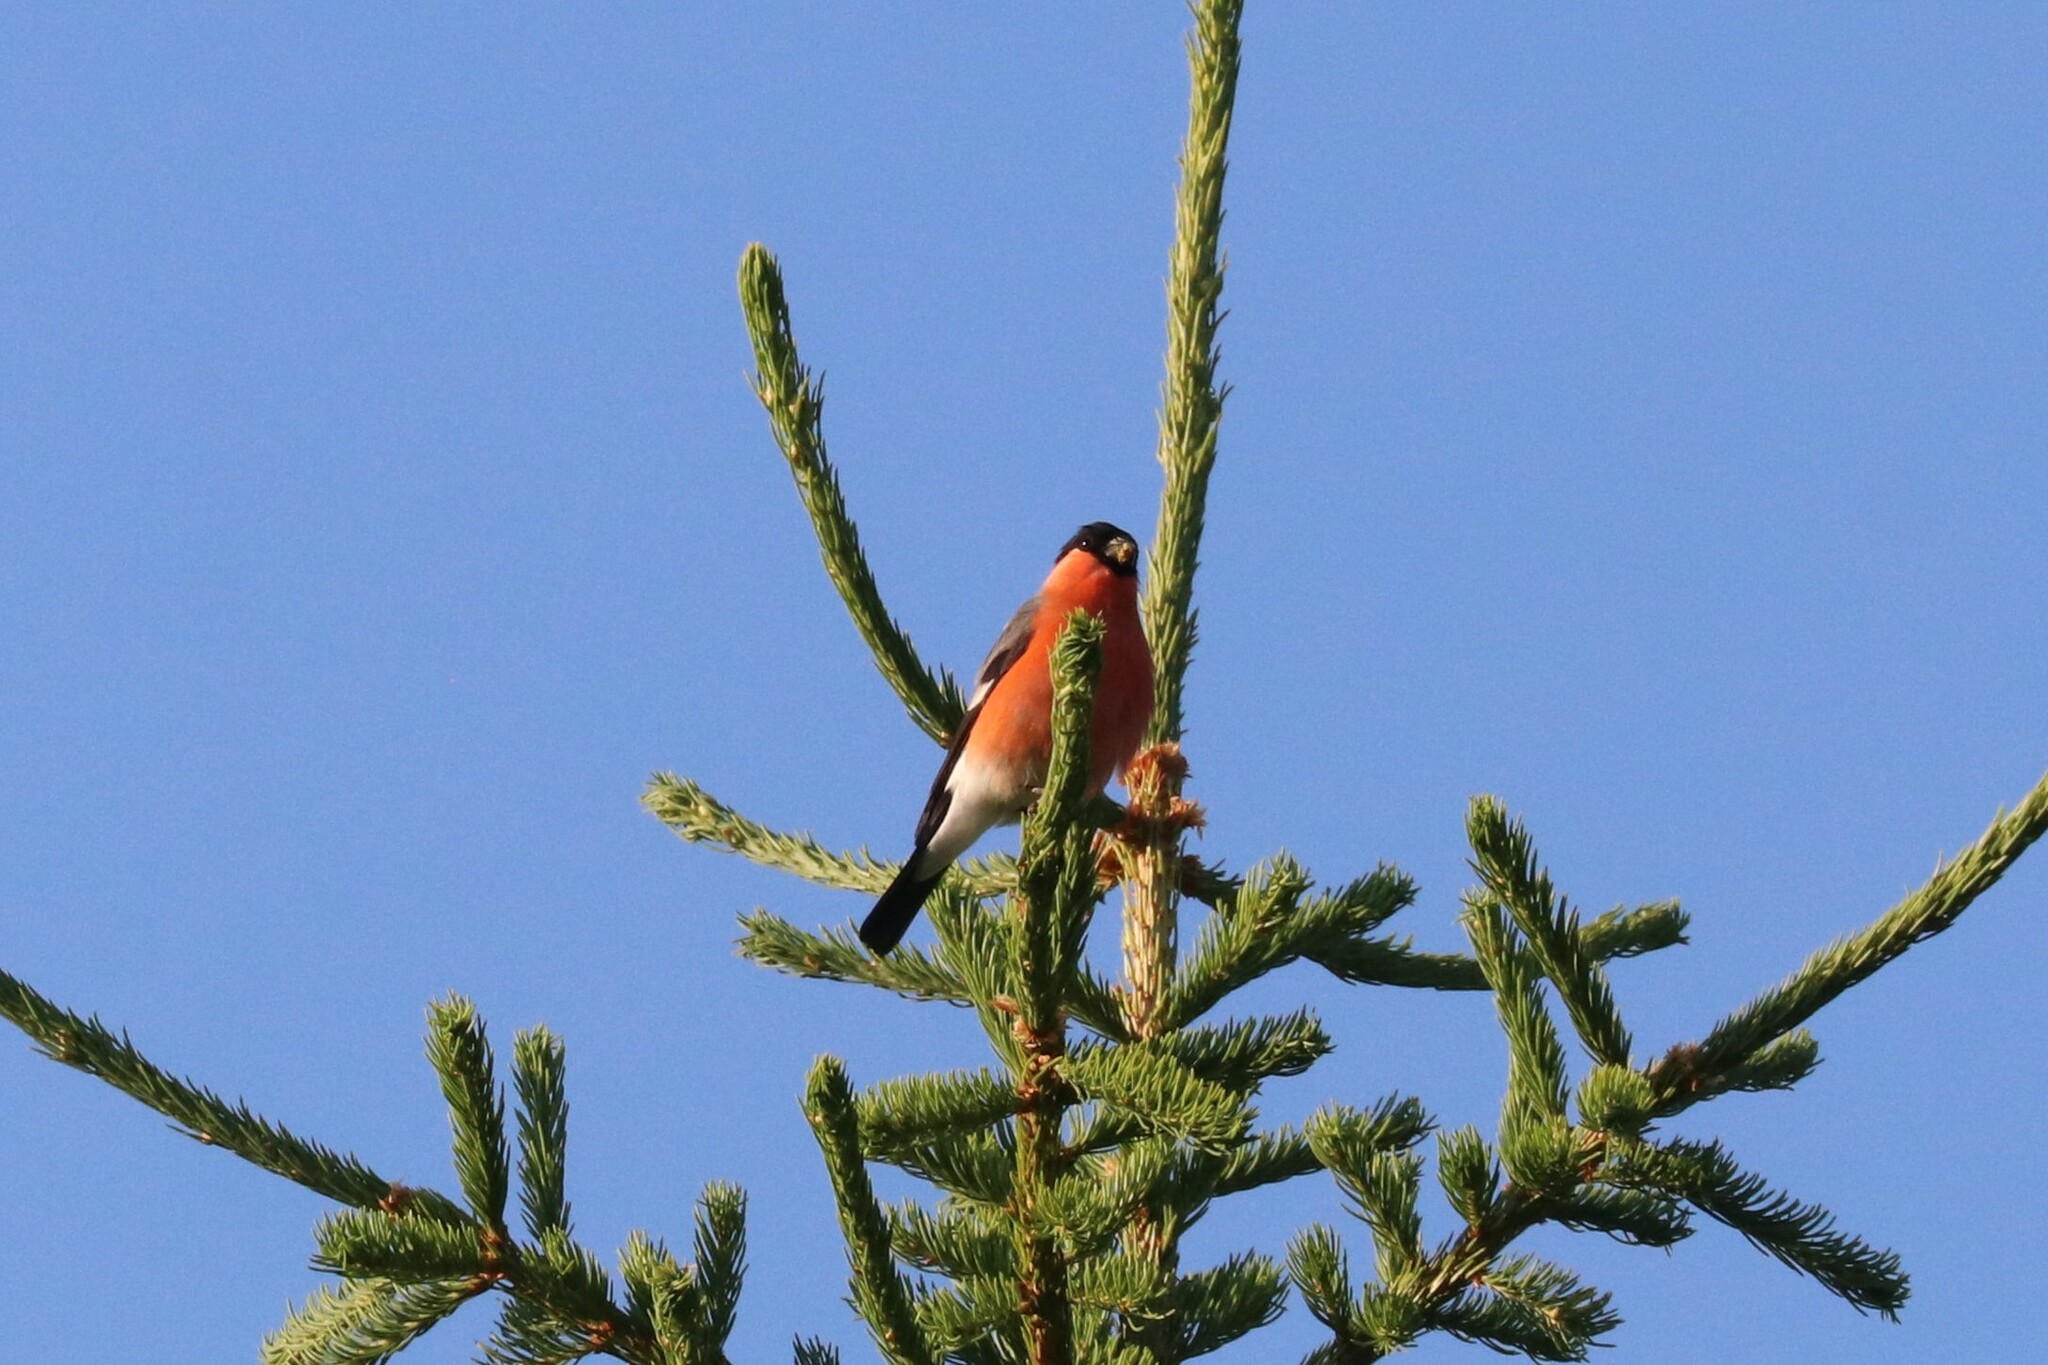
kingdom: Animalia
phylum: Chordata
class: Aves
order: Passeriformes
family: Fringillidae
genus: Pyrrhula
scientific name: Pyrrhula pyrrhula
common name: Eurasian bullfinch
